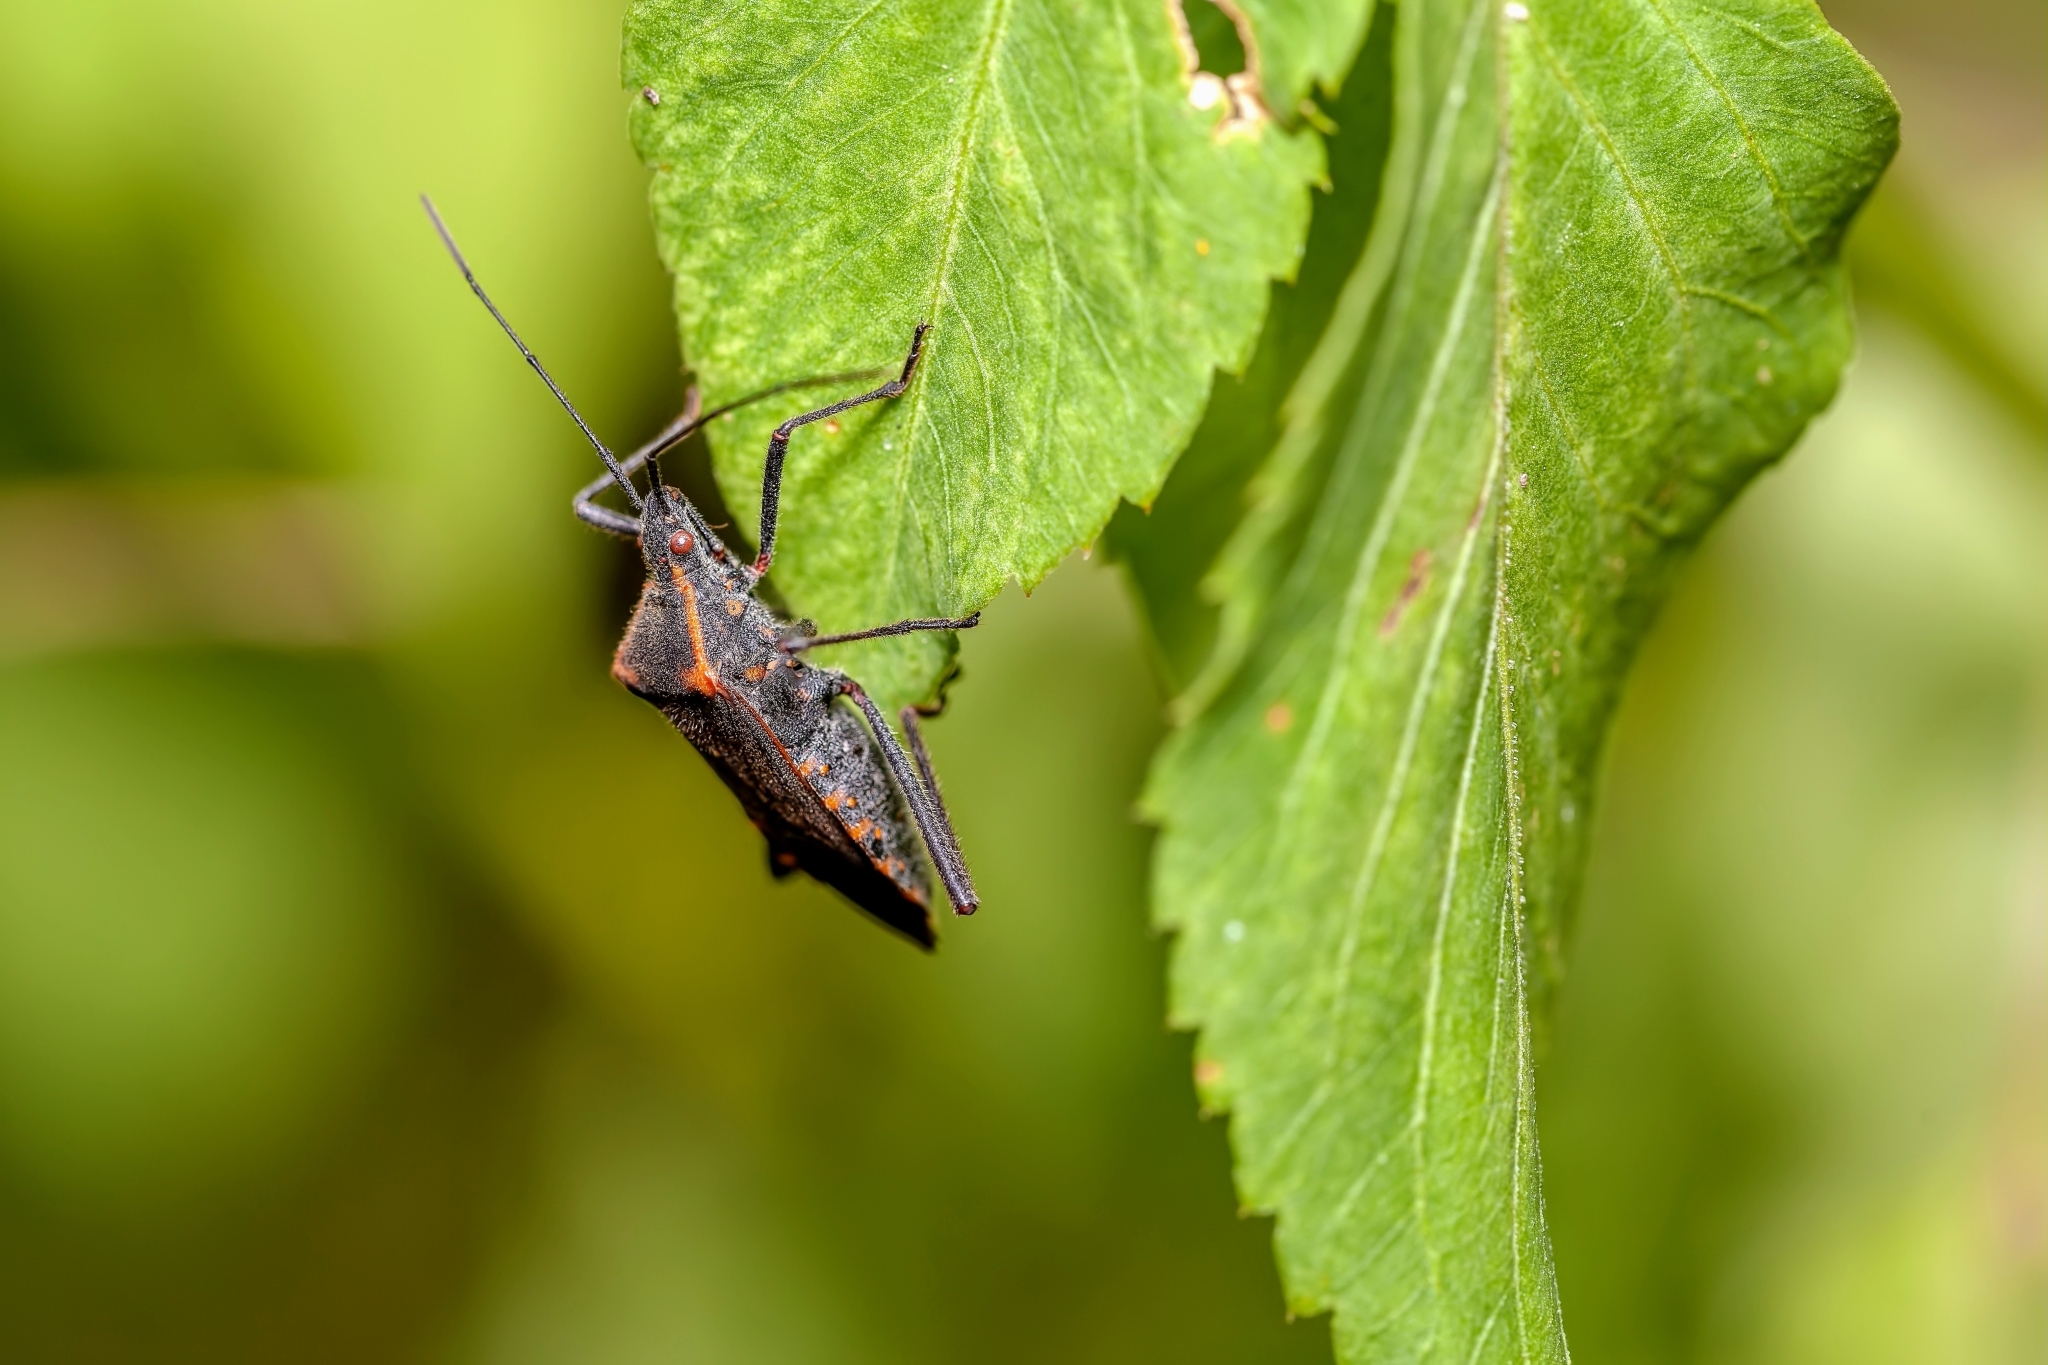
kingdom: Animalia
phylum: Arthropoda
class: Insecta
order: Hemiptera
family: Coreidae
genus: Phthiacnemia
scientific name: Phthiacnemia picta
